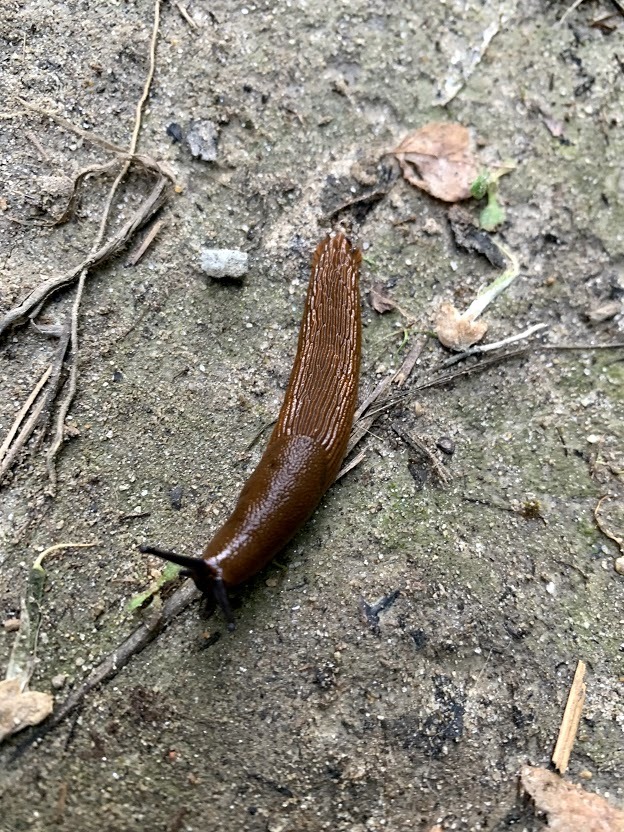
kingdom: Animalia
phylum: Mollusca
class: Gastropoda
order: Stylommatophora
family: Arionidae
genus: Arion
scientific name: Arion rufus
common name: Chocolate arion
